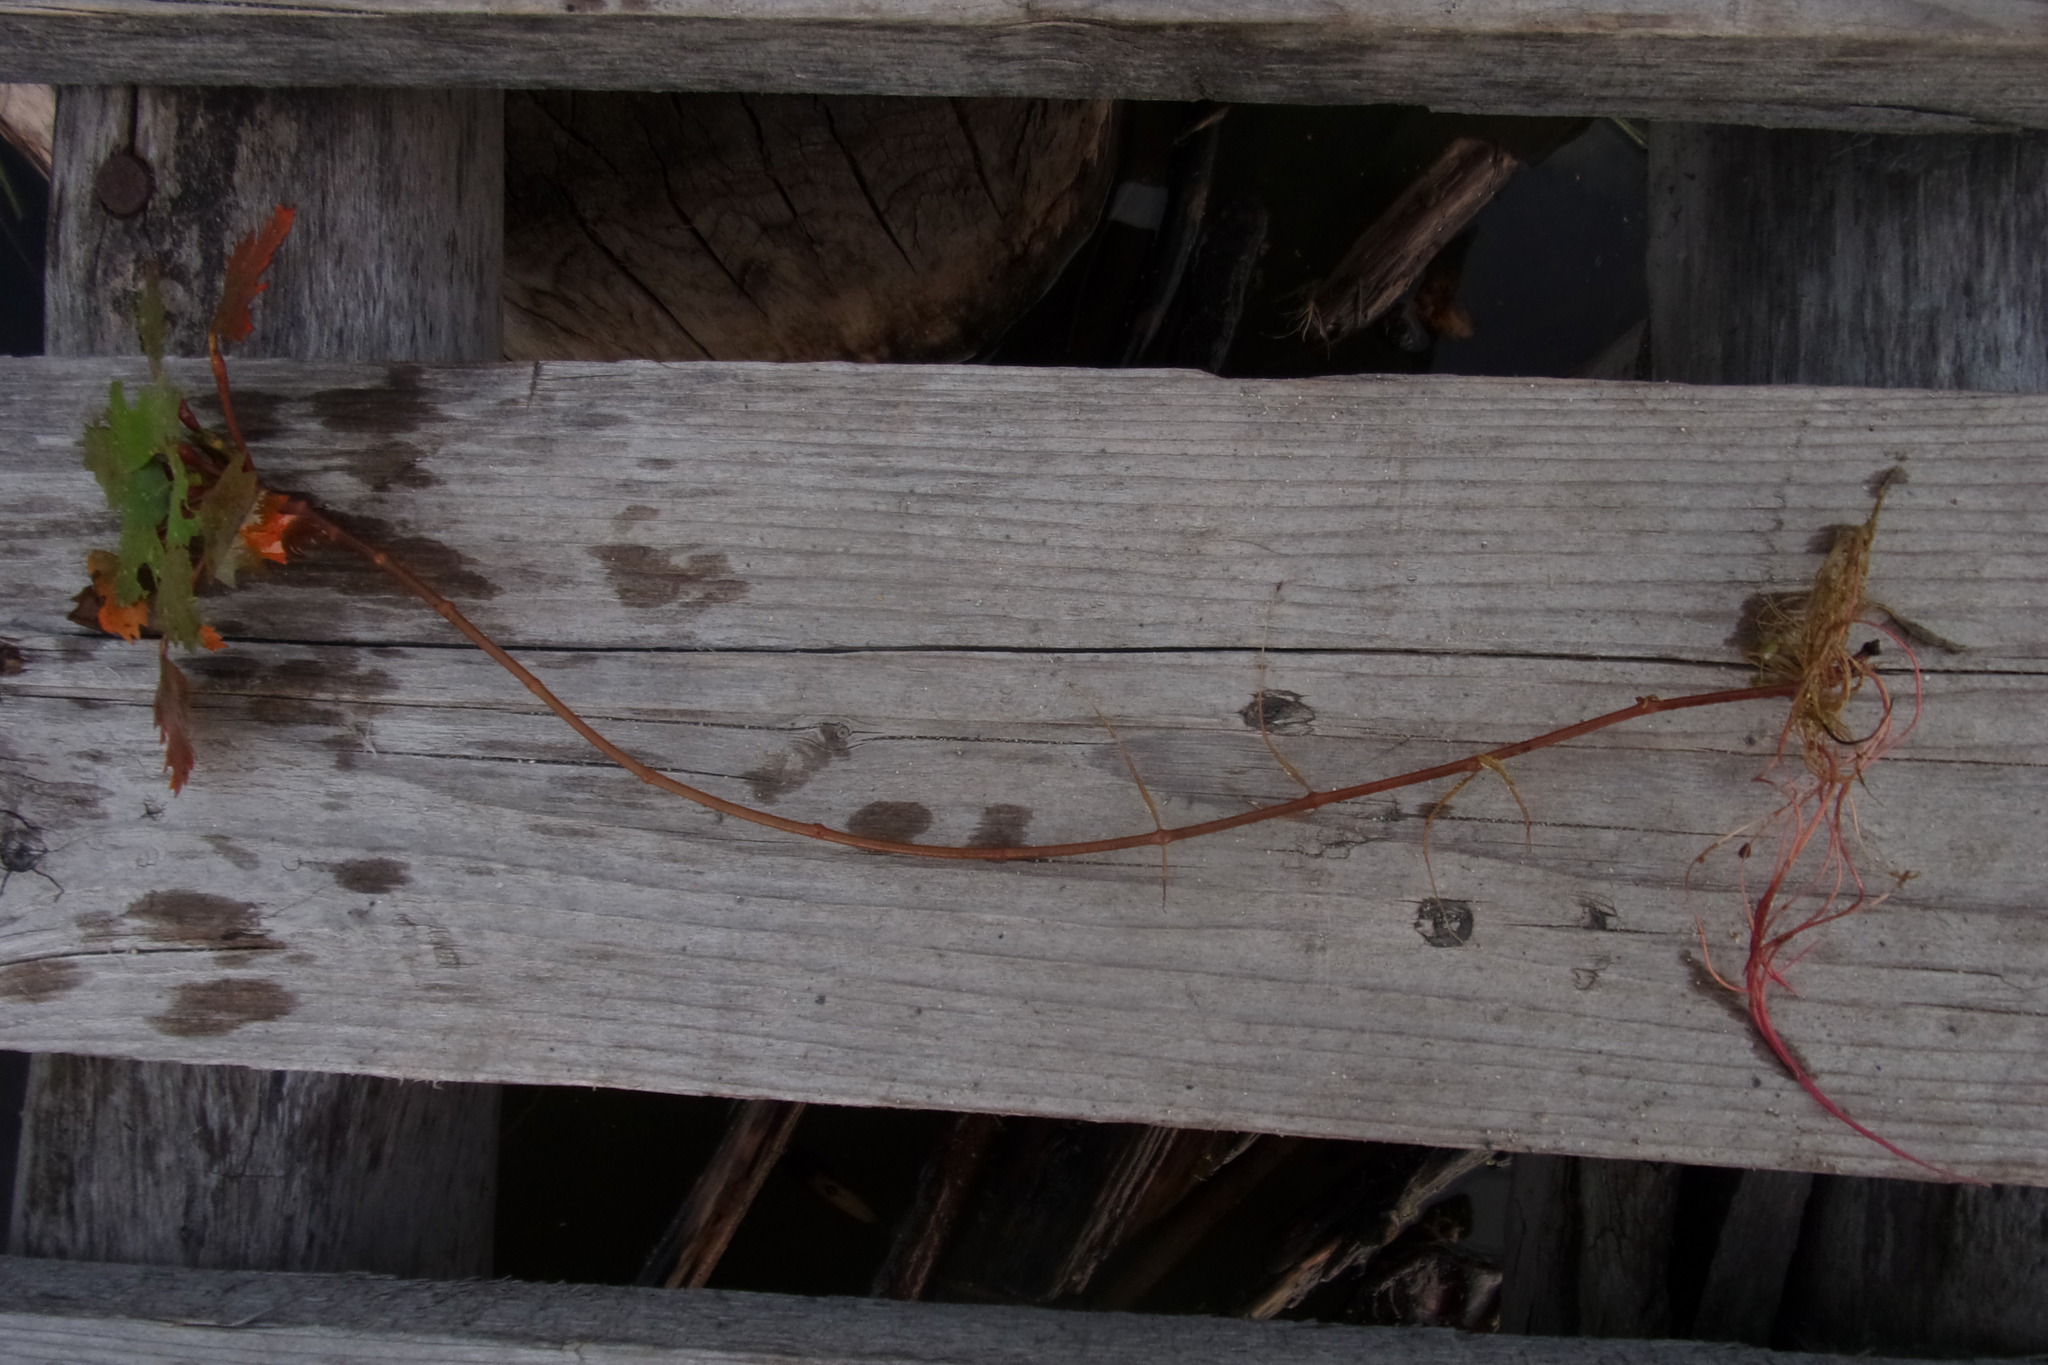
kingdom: Plantae
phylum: Tracheophyta
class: Magnoliopsida
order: Myrtales
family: Lythraceae
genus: Trapa
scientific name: Trapa natans
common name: Water chestnut
